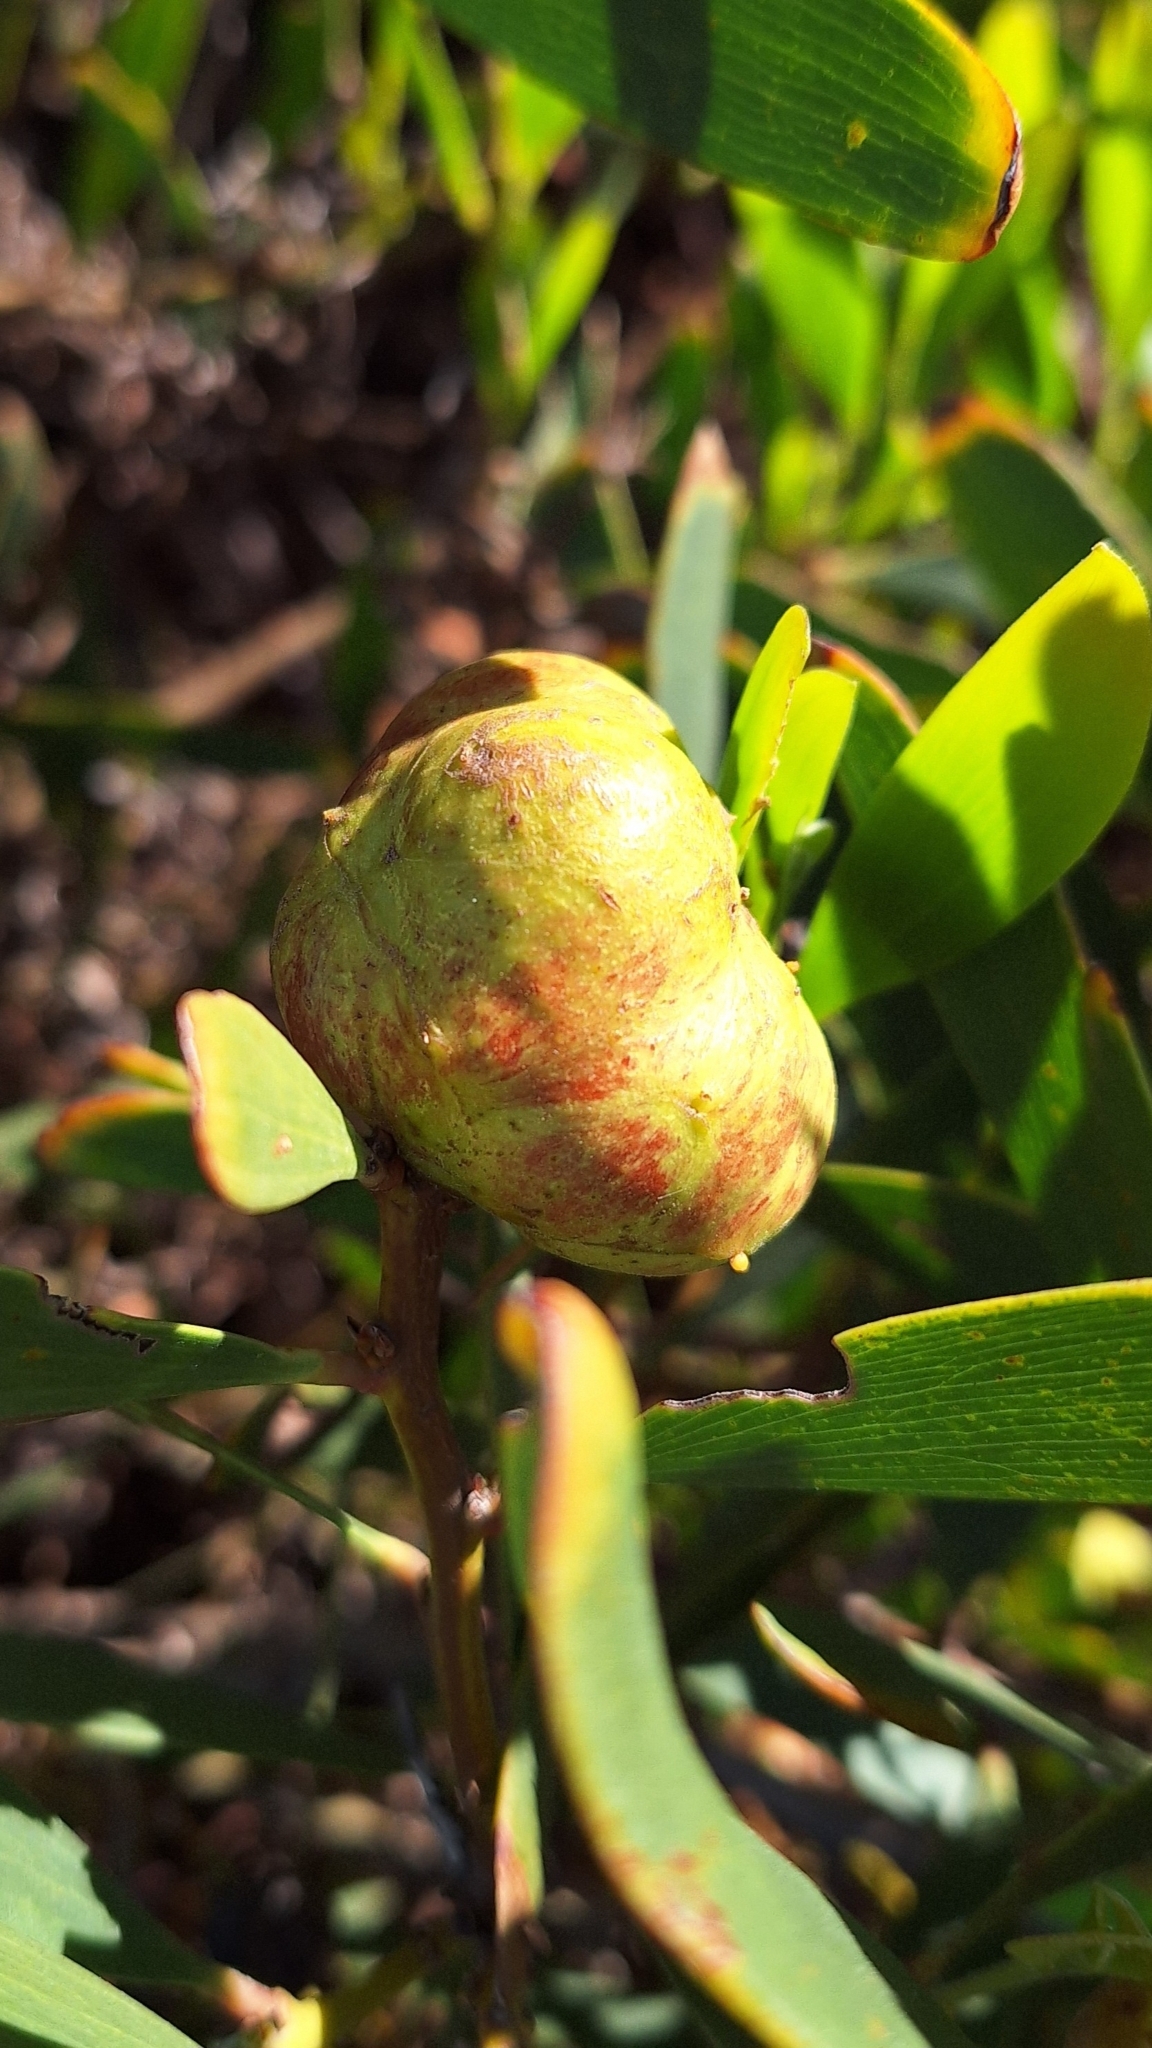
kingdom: Animalia
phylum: Arthropoda
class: Insecta
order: Hymenoptera
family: Pteromalidae
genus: Trichilogaster
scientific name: Trichilogaster acaciaelongifoliae
